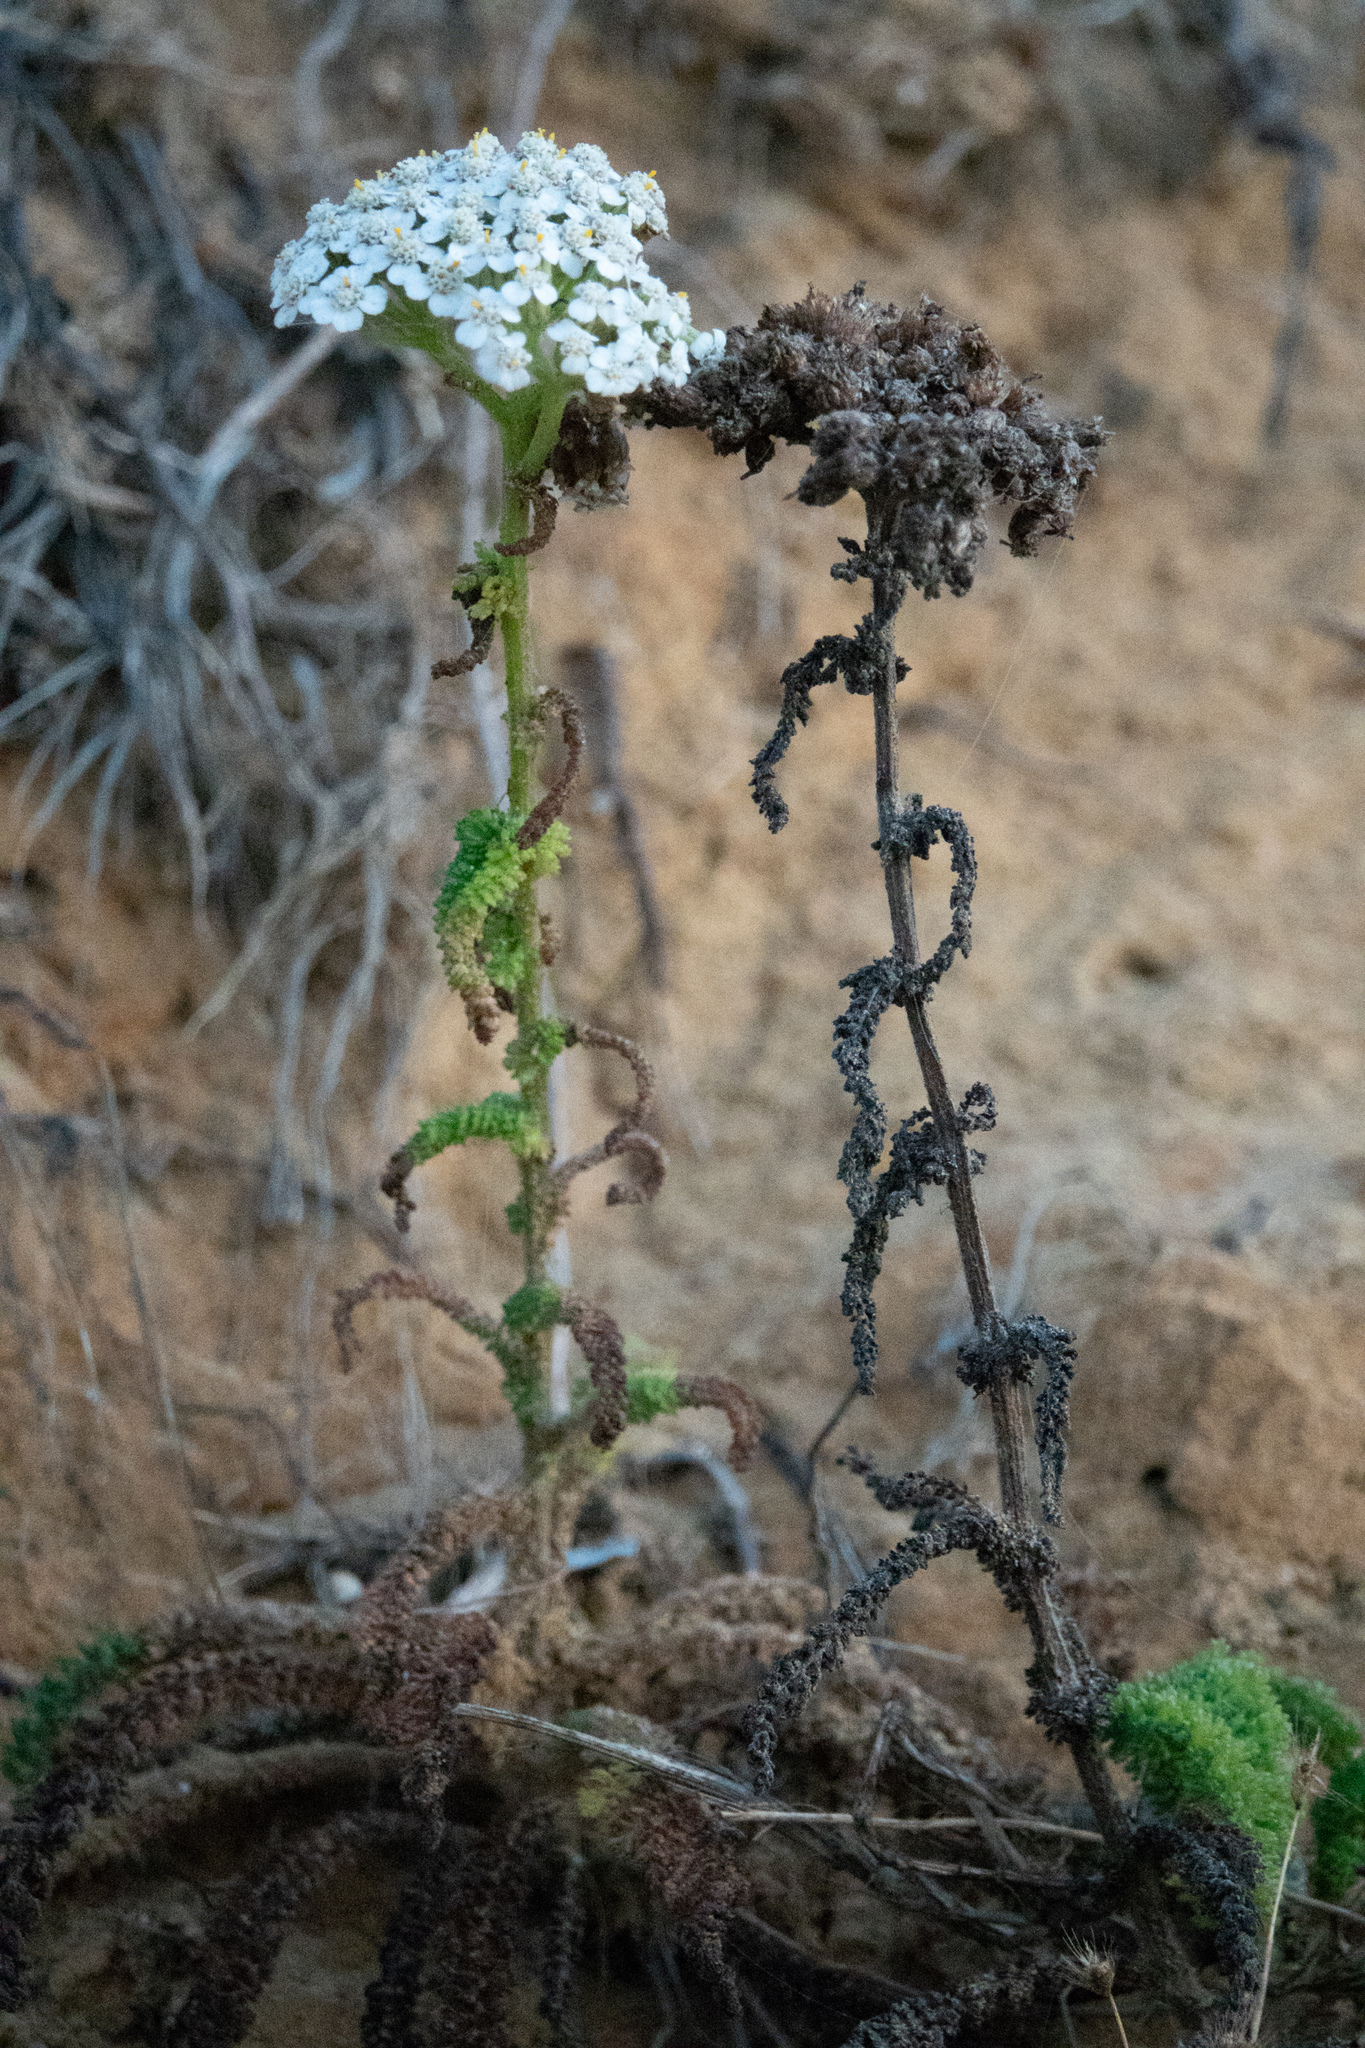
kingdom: Plantae
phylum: Tracheophyta
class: Magnoliopsida
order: Asterales
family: Asteraceae
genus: Achillea
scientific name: Achillea millefolium
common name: Yarrow
